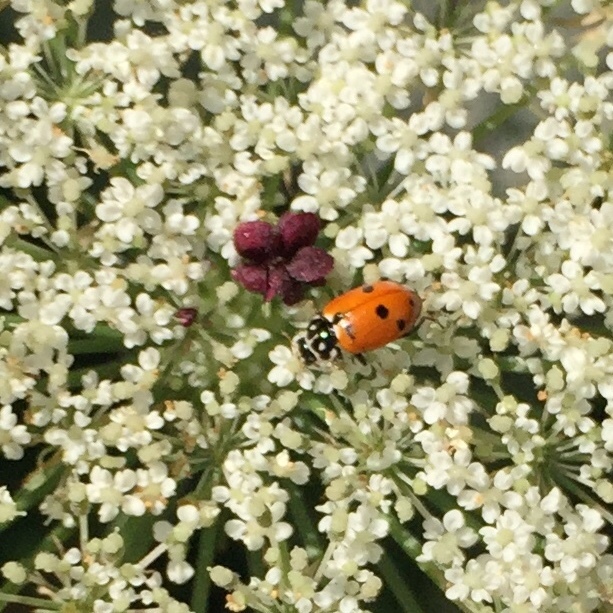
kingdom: Animalia
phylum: Arthropoda
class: Insecta
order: Coleoptera
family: Coccinellidae
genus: Hippodamia
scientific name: Hippodamia variegata
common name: Ladybird beetle
